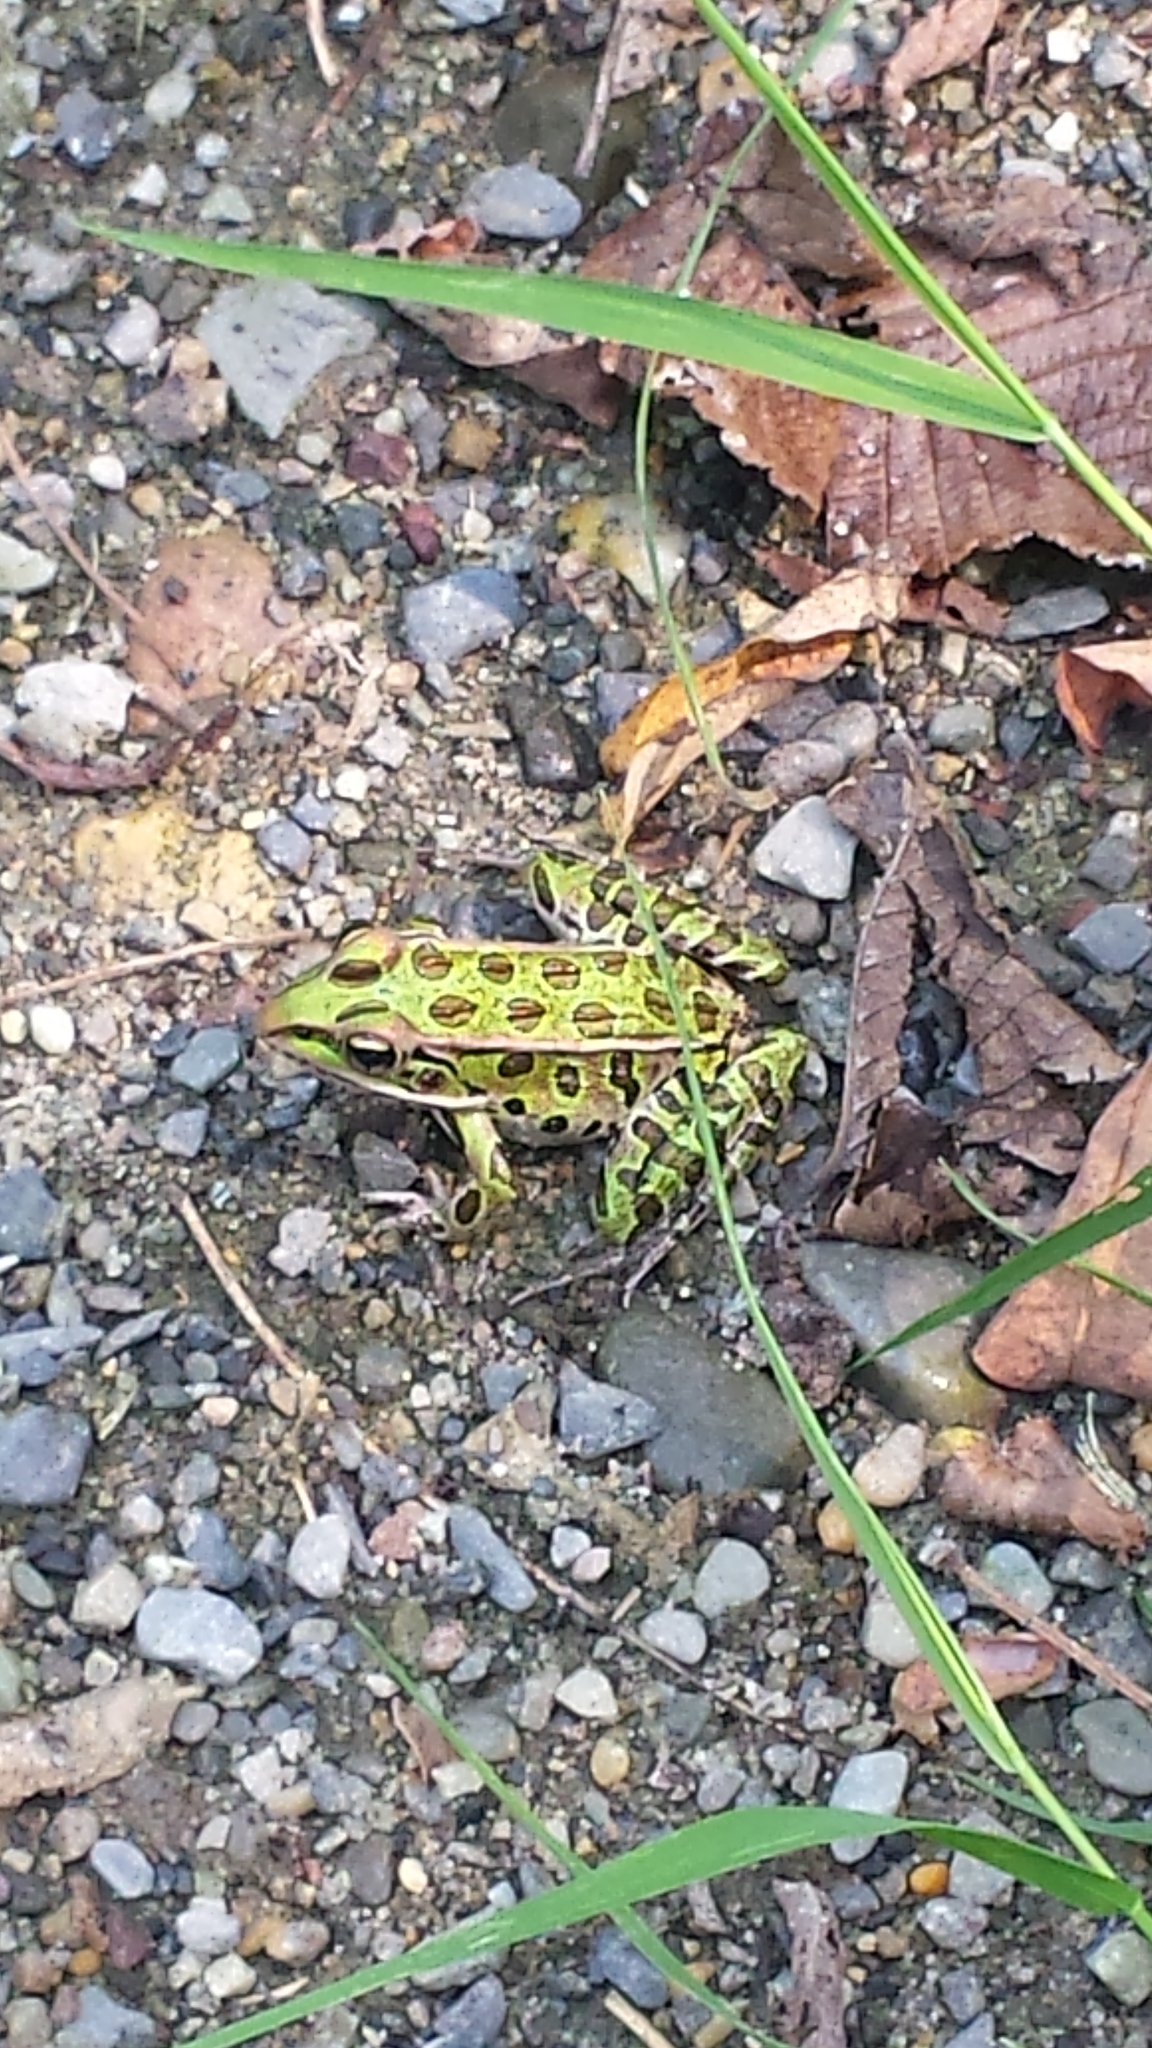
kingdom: Animalia
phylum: Chordata
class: Amphibia
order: Anura
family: Ranidae
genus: Lithobates
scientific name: Lithobates pipiens
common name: Northern leopard frog
